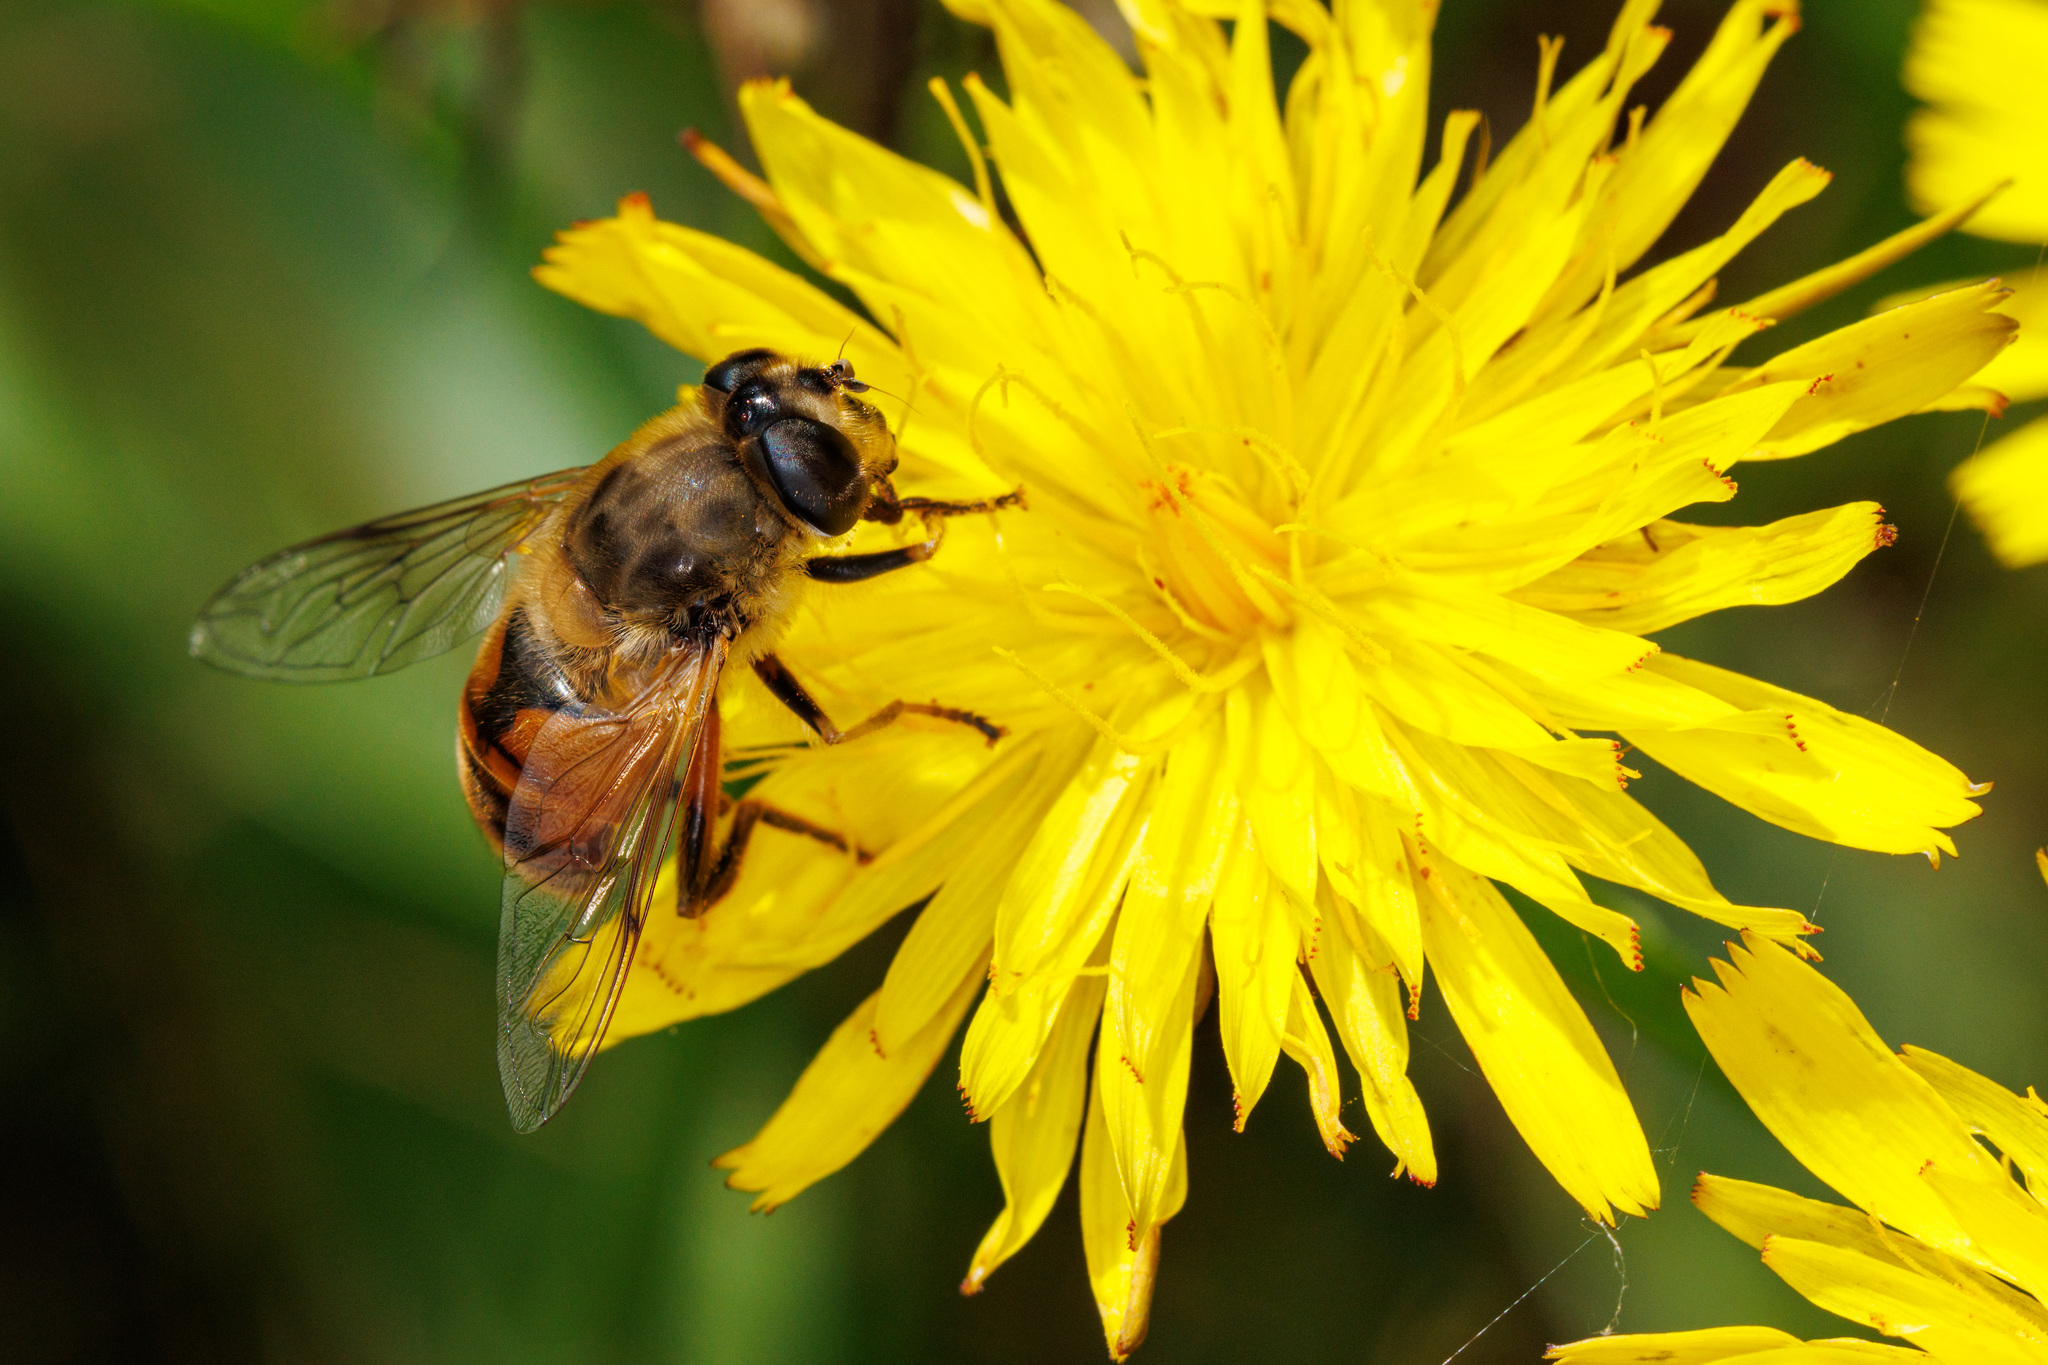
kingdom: Animalia
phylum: Arthropoda
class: Insecta
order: Diptera
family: Syrphidae
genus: Eristalis
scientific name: Eristalis tenax
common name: Drone fly
